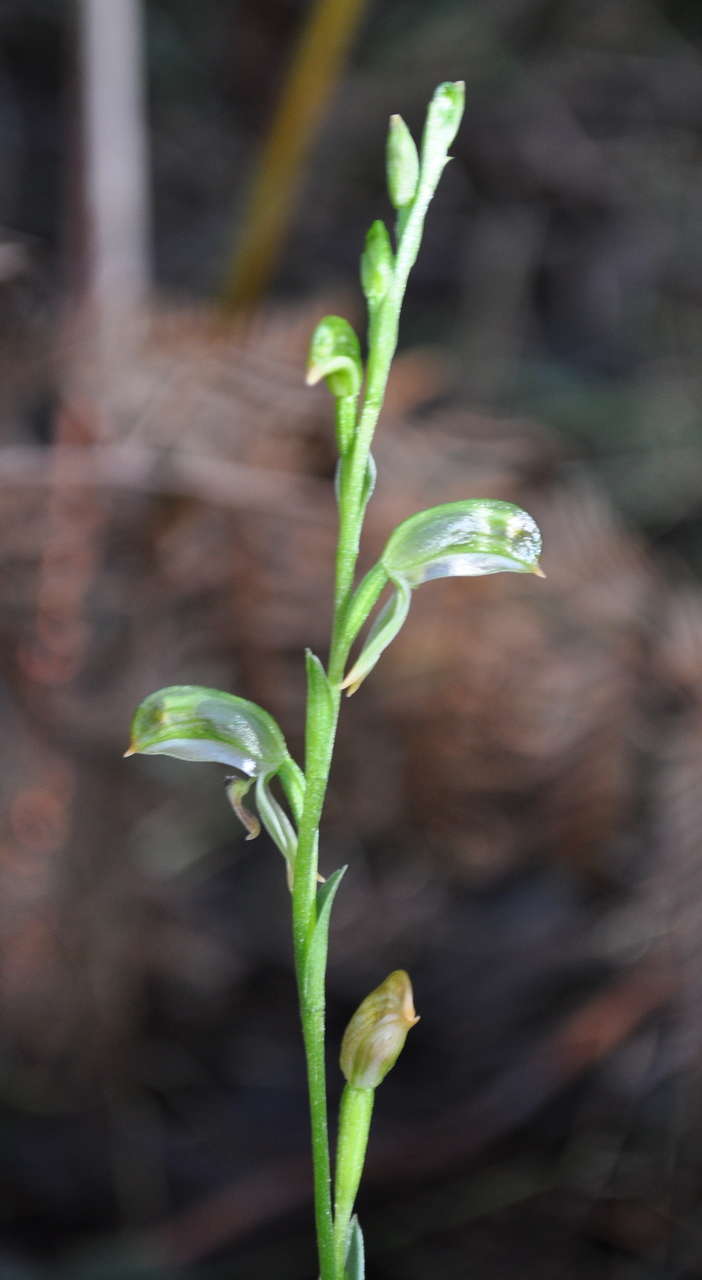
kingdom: Plantae
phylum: Tracheophyta
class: Liliopsida
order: Asparagales
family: Orchidaceae
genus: Pterostylis
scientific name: Pterostylis melagramma
